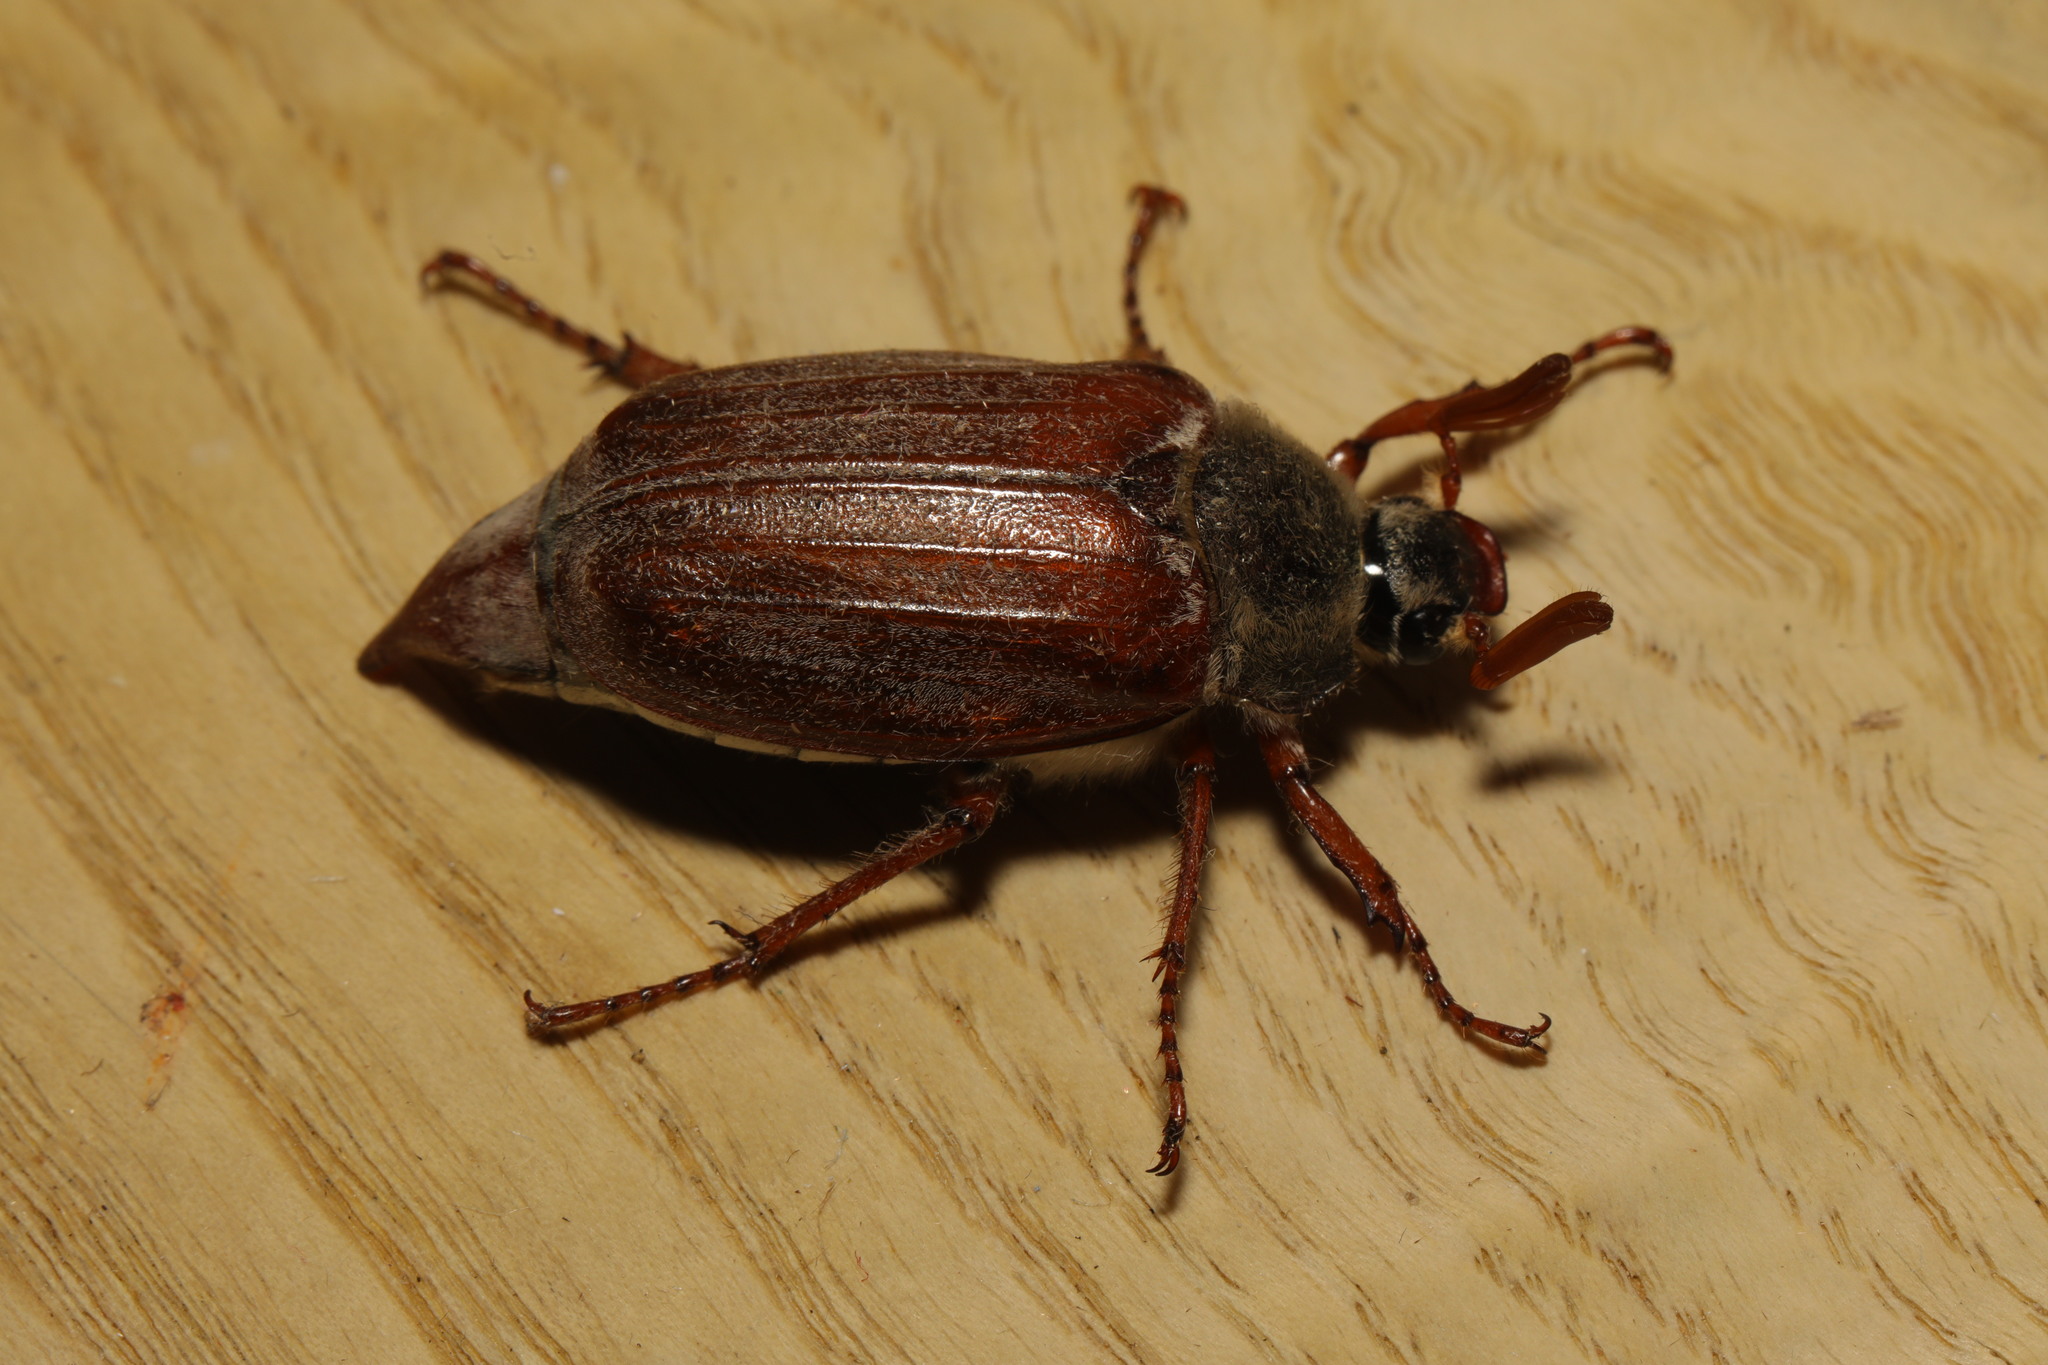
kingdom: Animalia
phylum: Arthropoda
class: Insecta
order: Coleoptera
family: Scarabaeidae
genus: Melolontha
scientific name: Melolontha melolontha
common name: Cockchafer maybeetle
